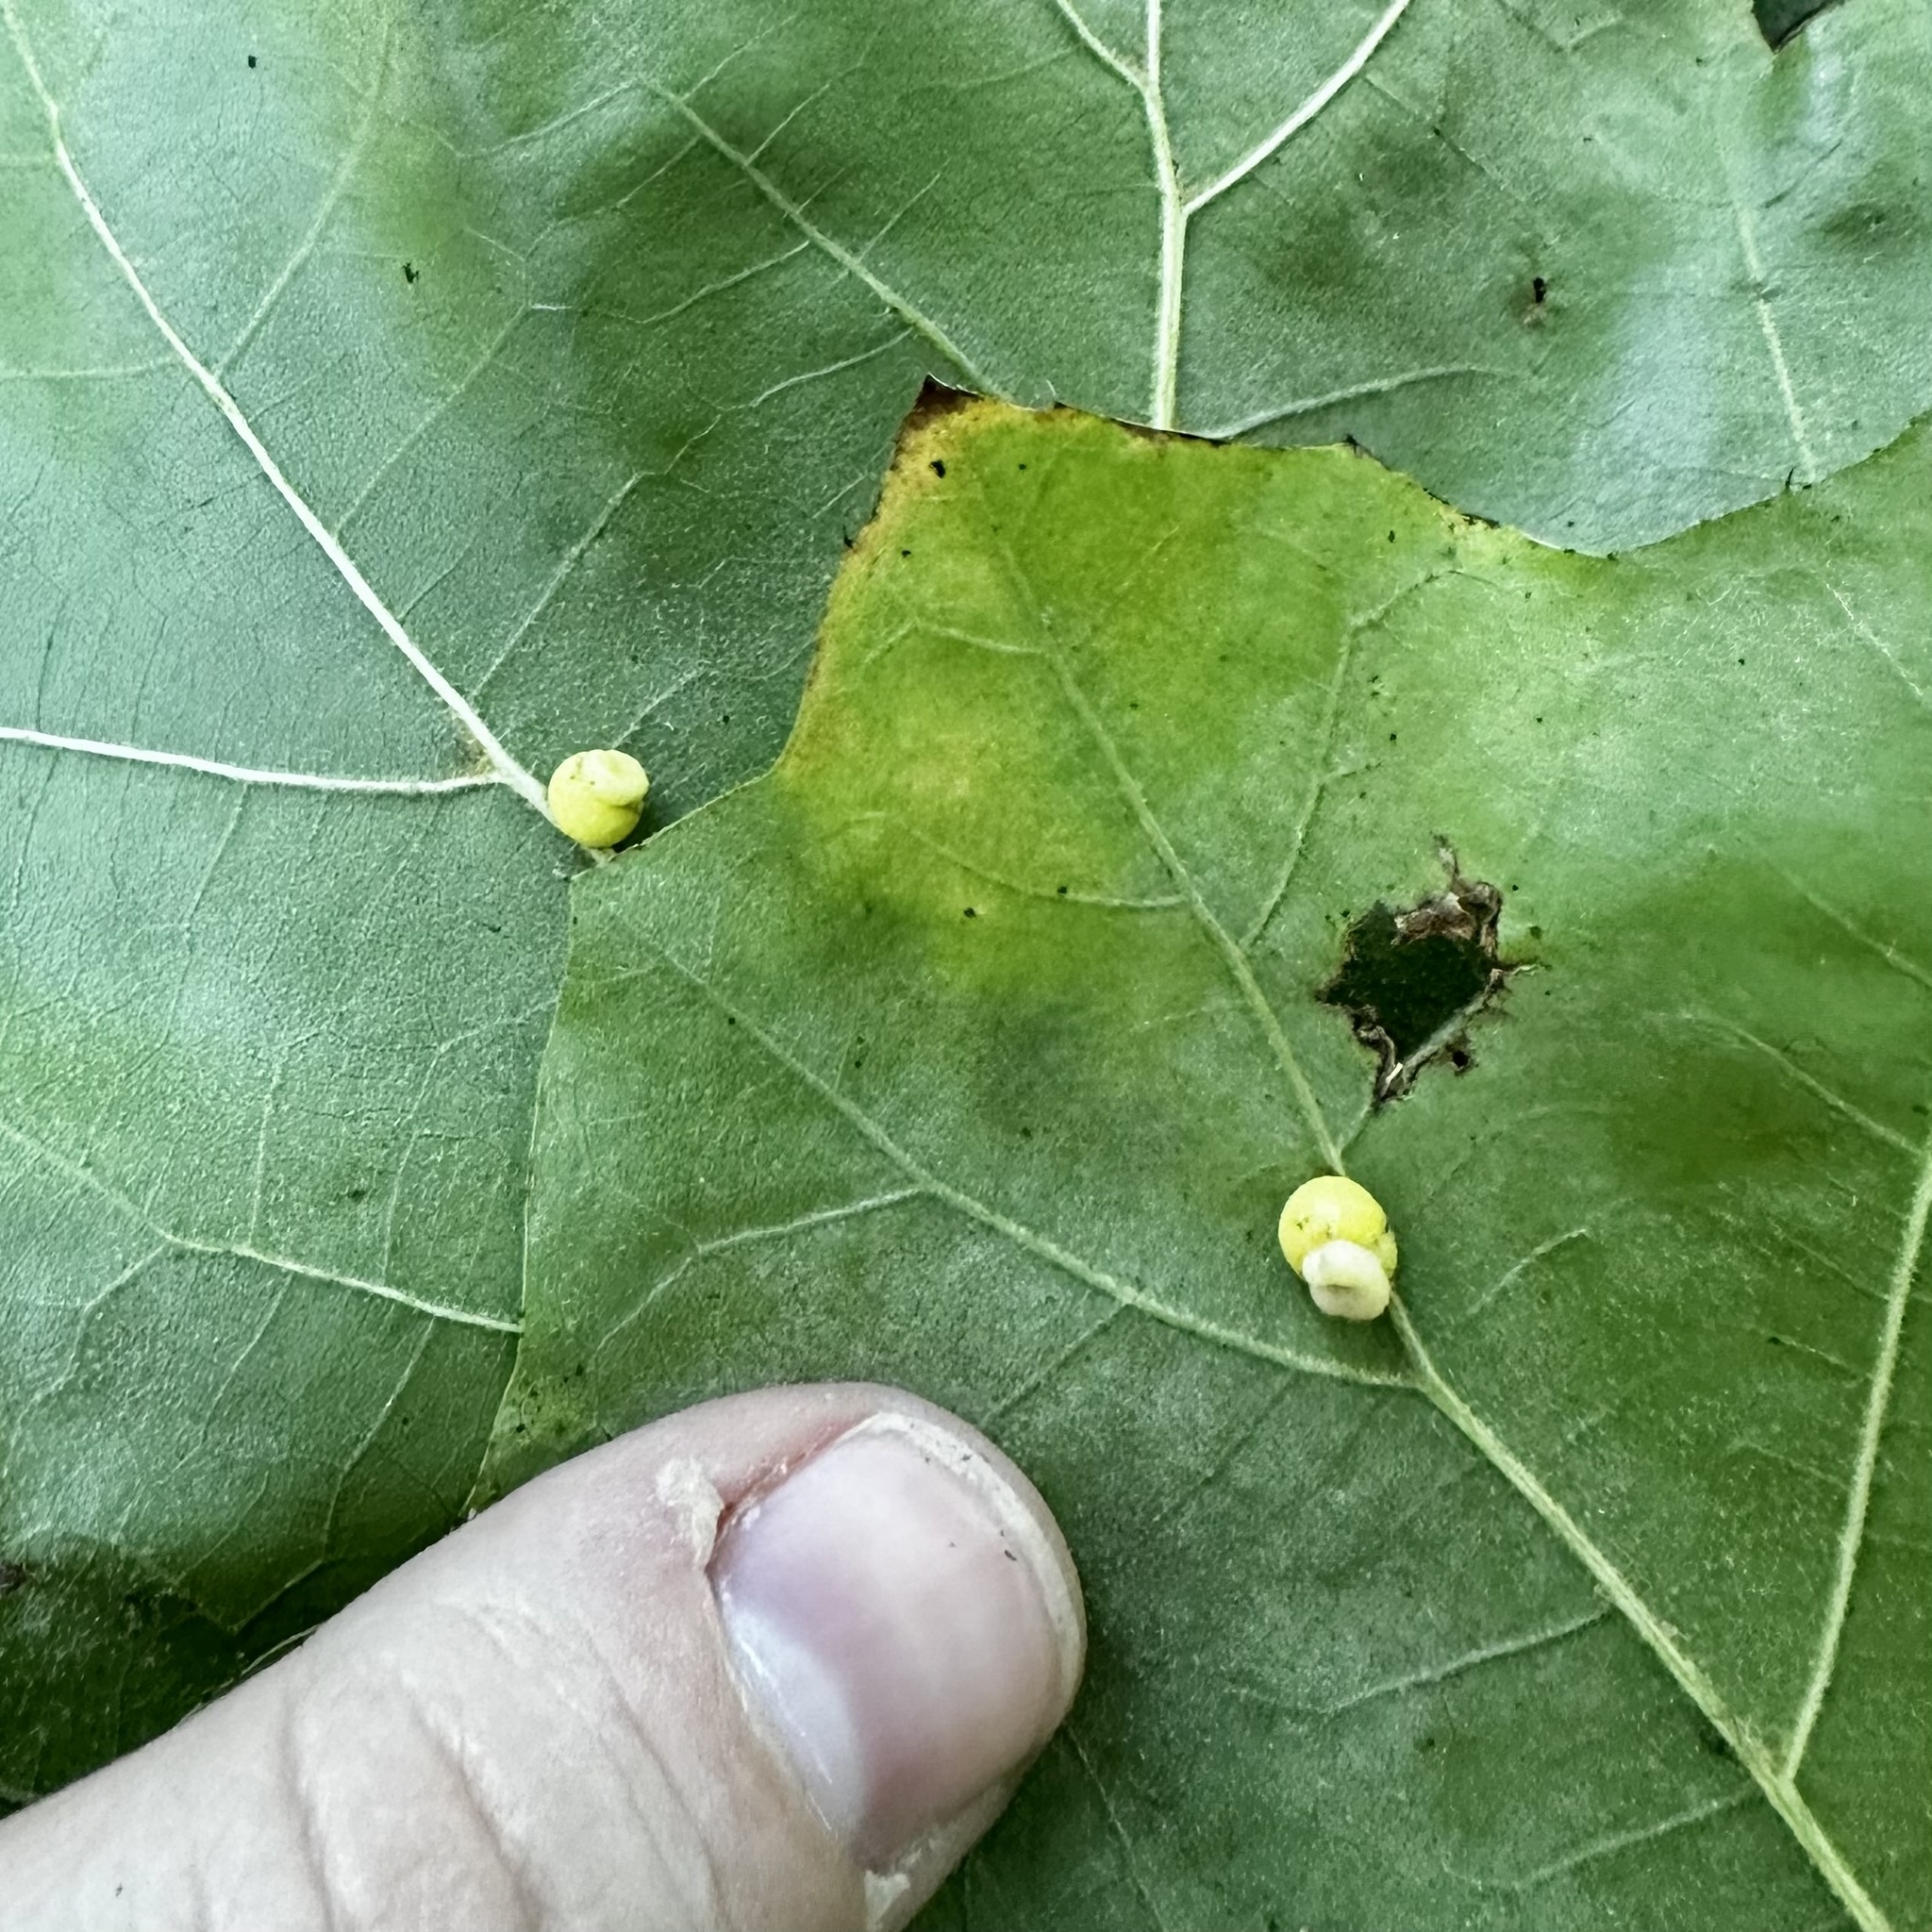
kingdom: Animalia
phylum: Arthropoda
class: Insecta
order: Hymenoptera
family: Cynipidae
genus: Kokkocynips
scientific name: Kokkocynips rileyi
